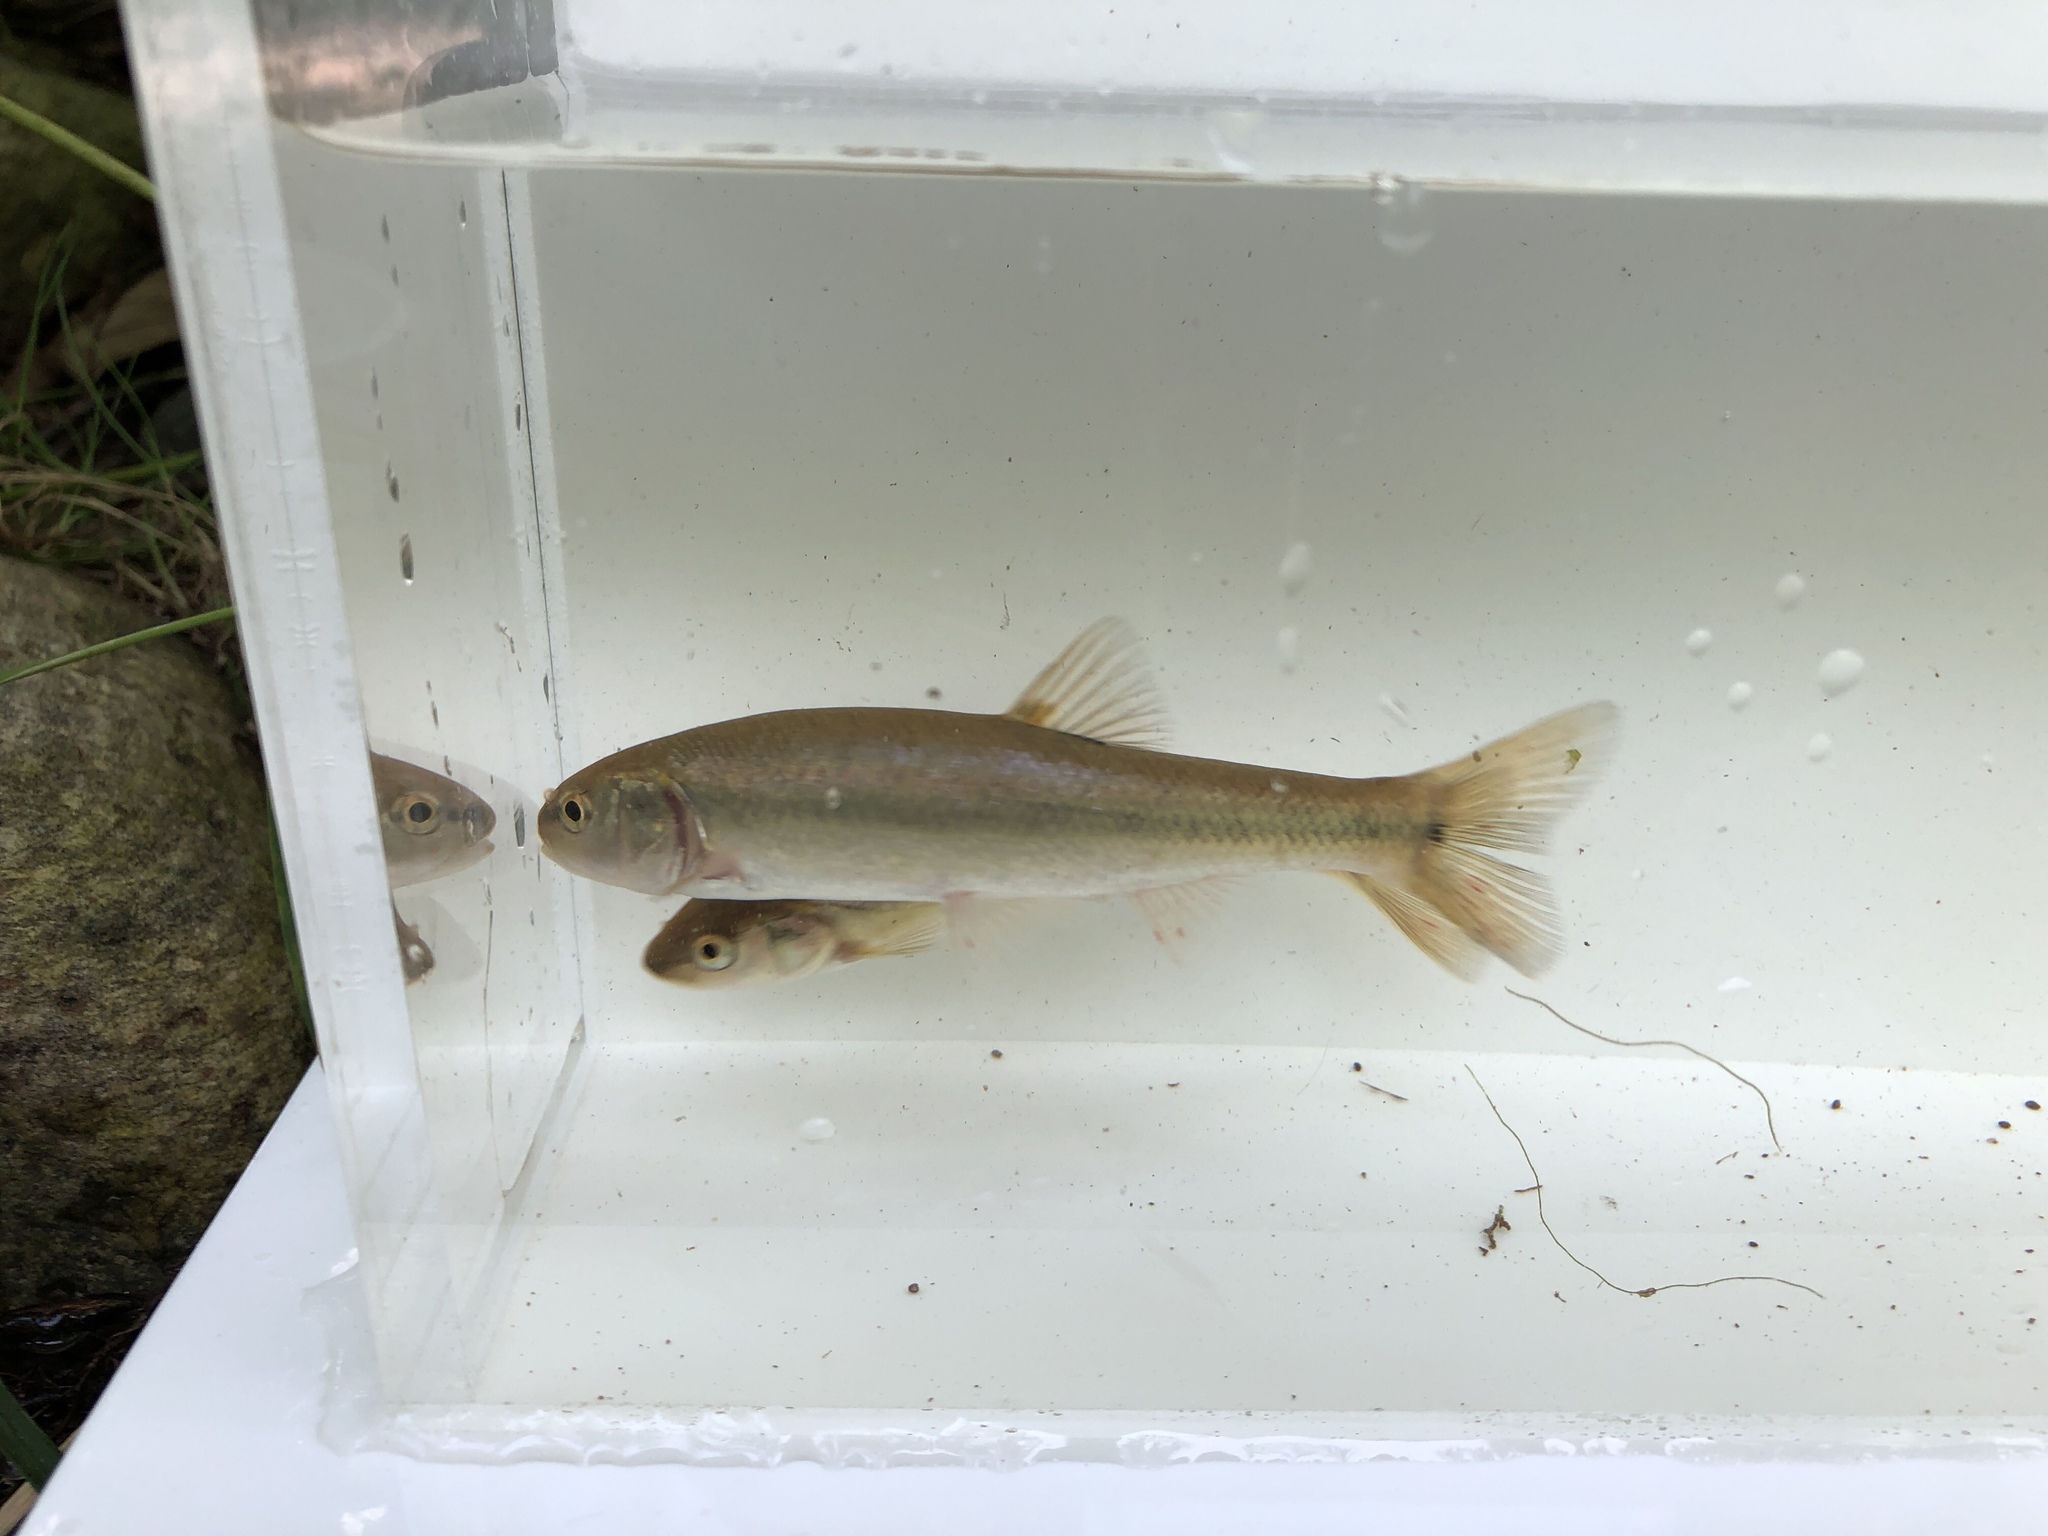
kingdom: Animalia
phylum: Chordata
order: Cypriniformes
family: Cyprinidae
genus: Semotilus
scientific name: Semotilus atromaculatus
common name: Creek chub
